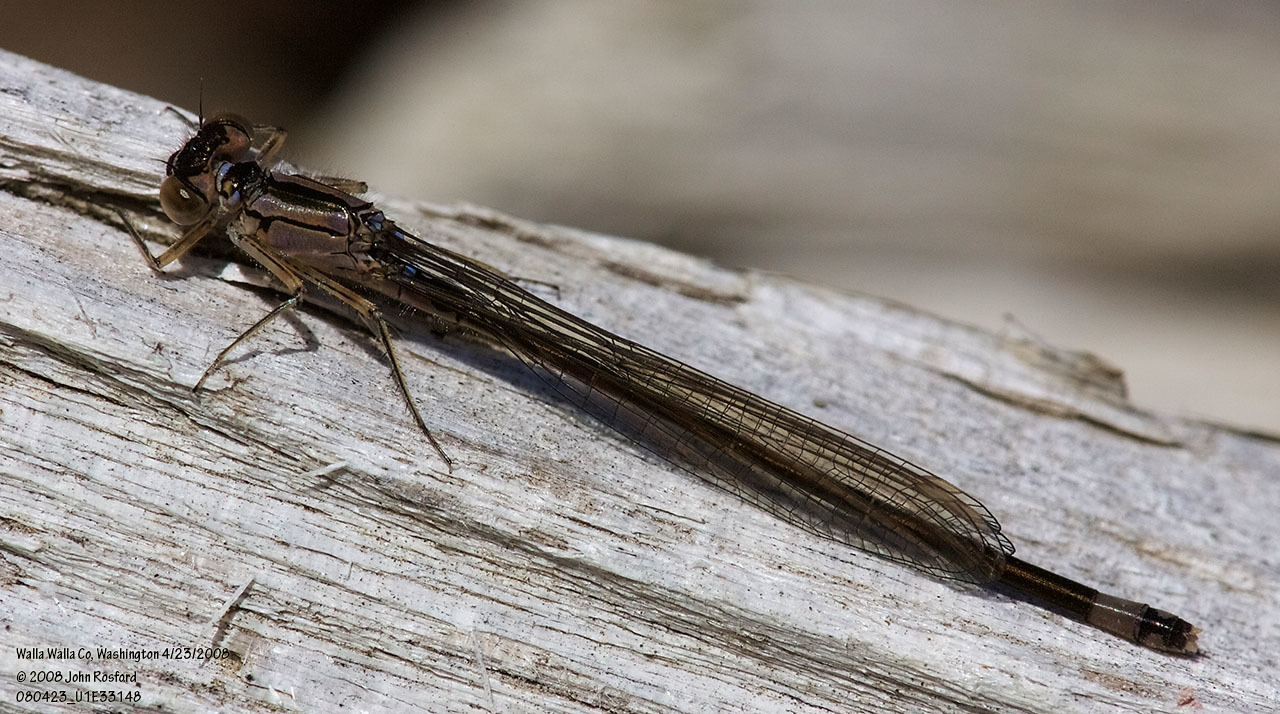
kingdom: Animalia
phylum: Arthropoda
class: Insecta
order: Odonata
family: Coenagrionidae
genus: Ischnura
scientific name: Ischnura cervula
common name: Pacific forktail
